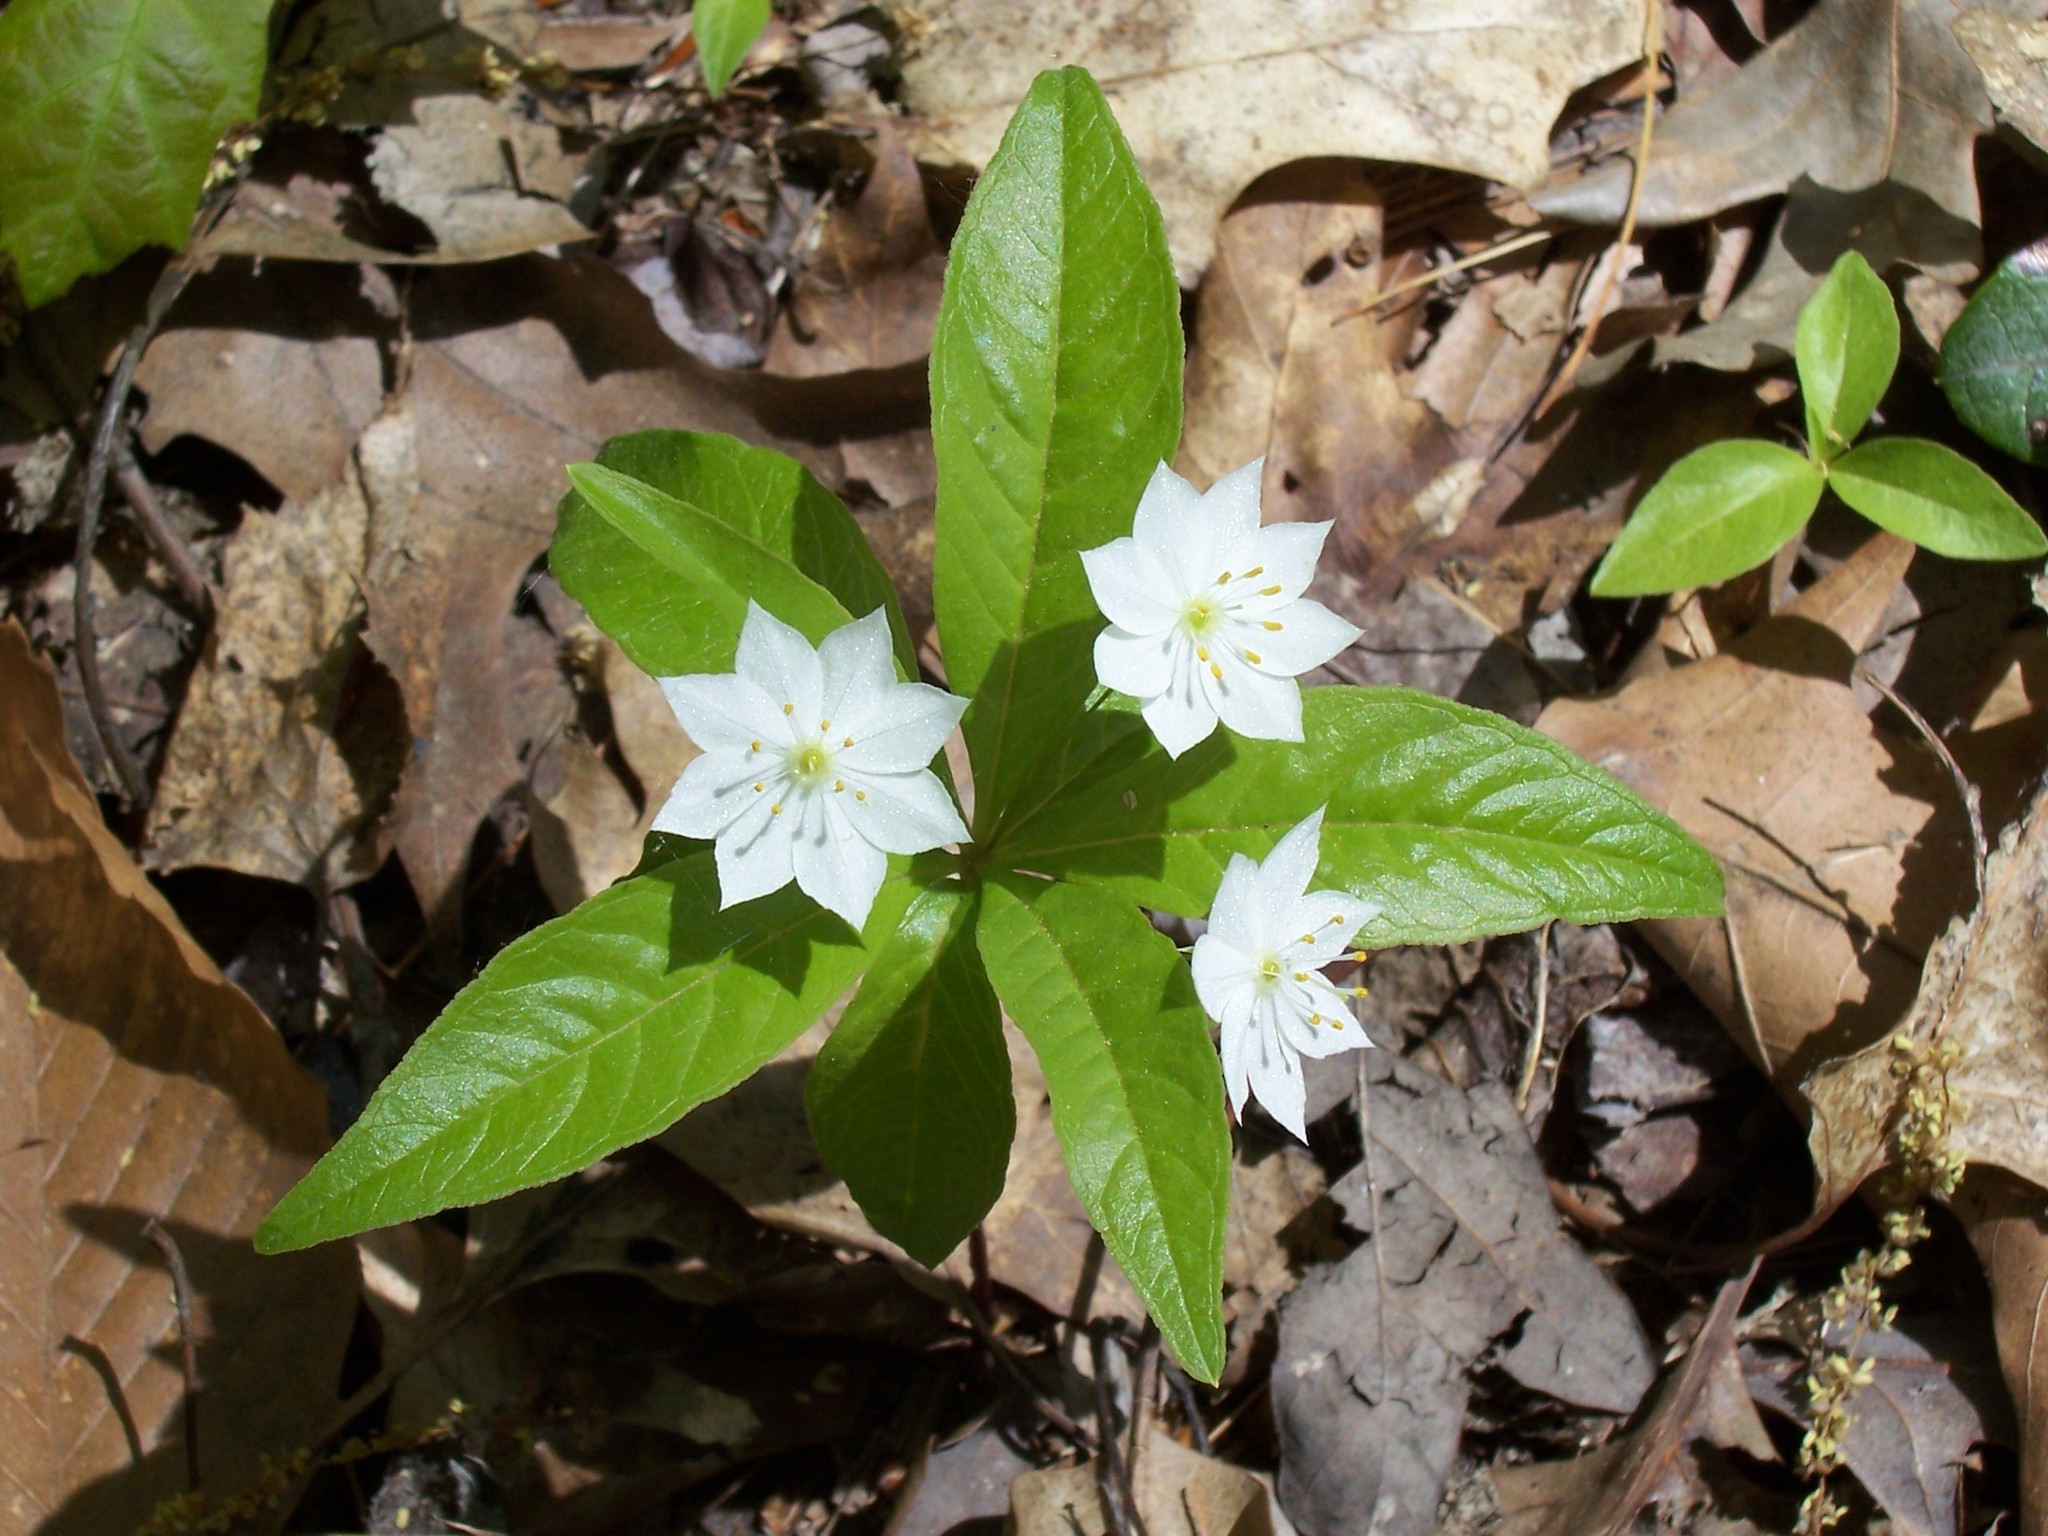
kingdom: Plantae
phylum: Tracheophyta
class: Magnoliopsida
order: Ericales
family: Primulaceae
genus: Lysimachia
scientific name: Lysimachia borealis
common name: American starflower
